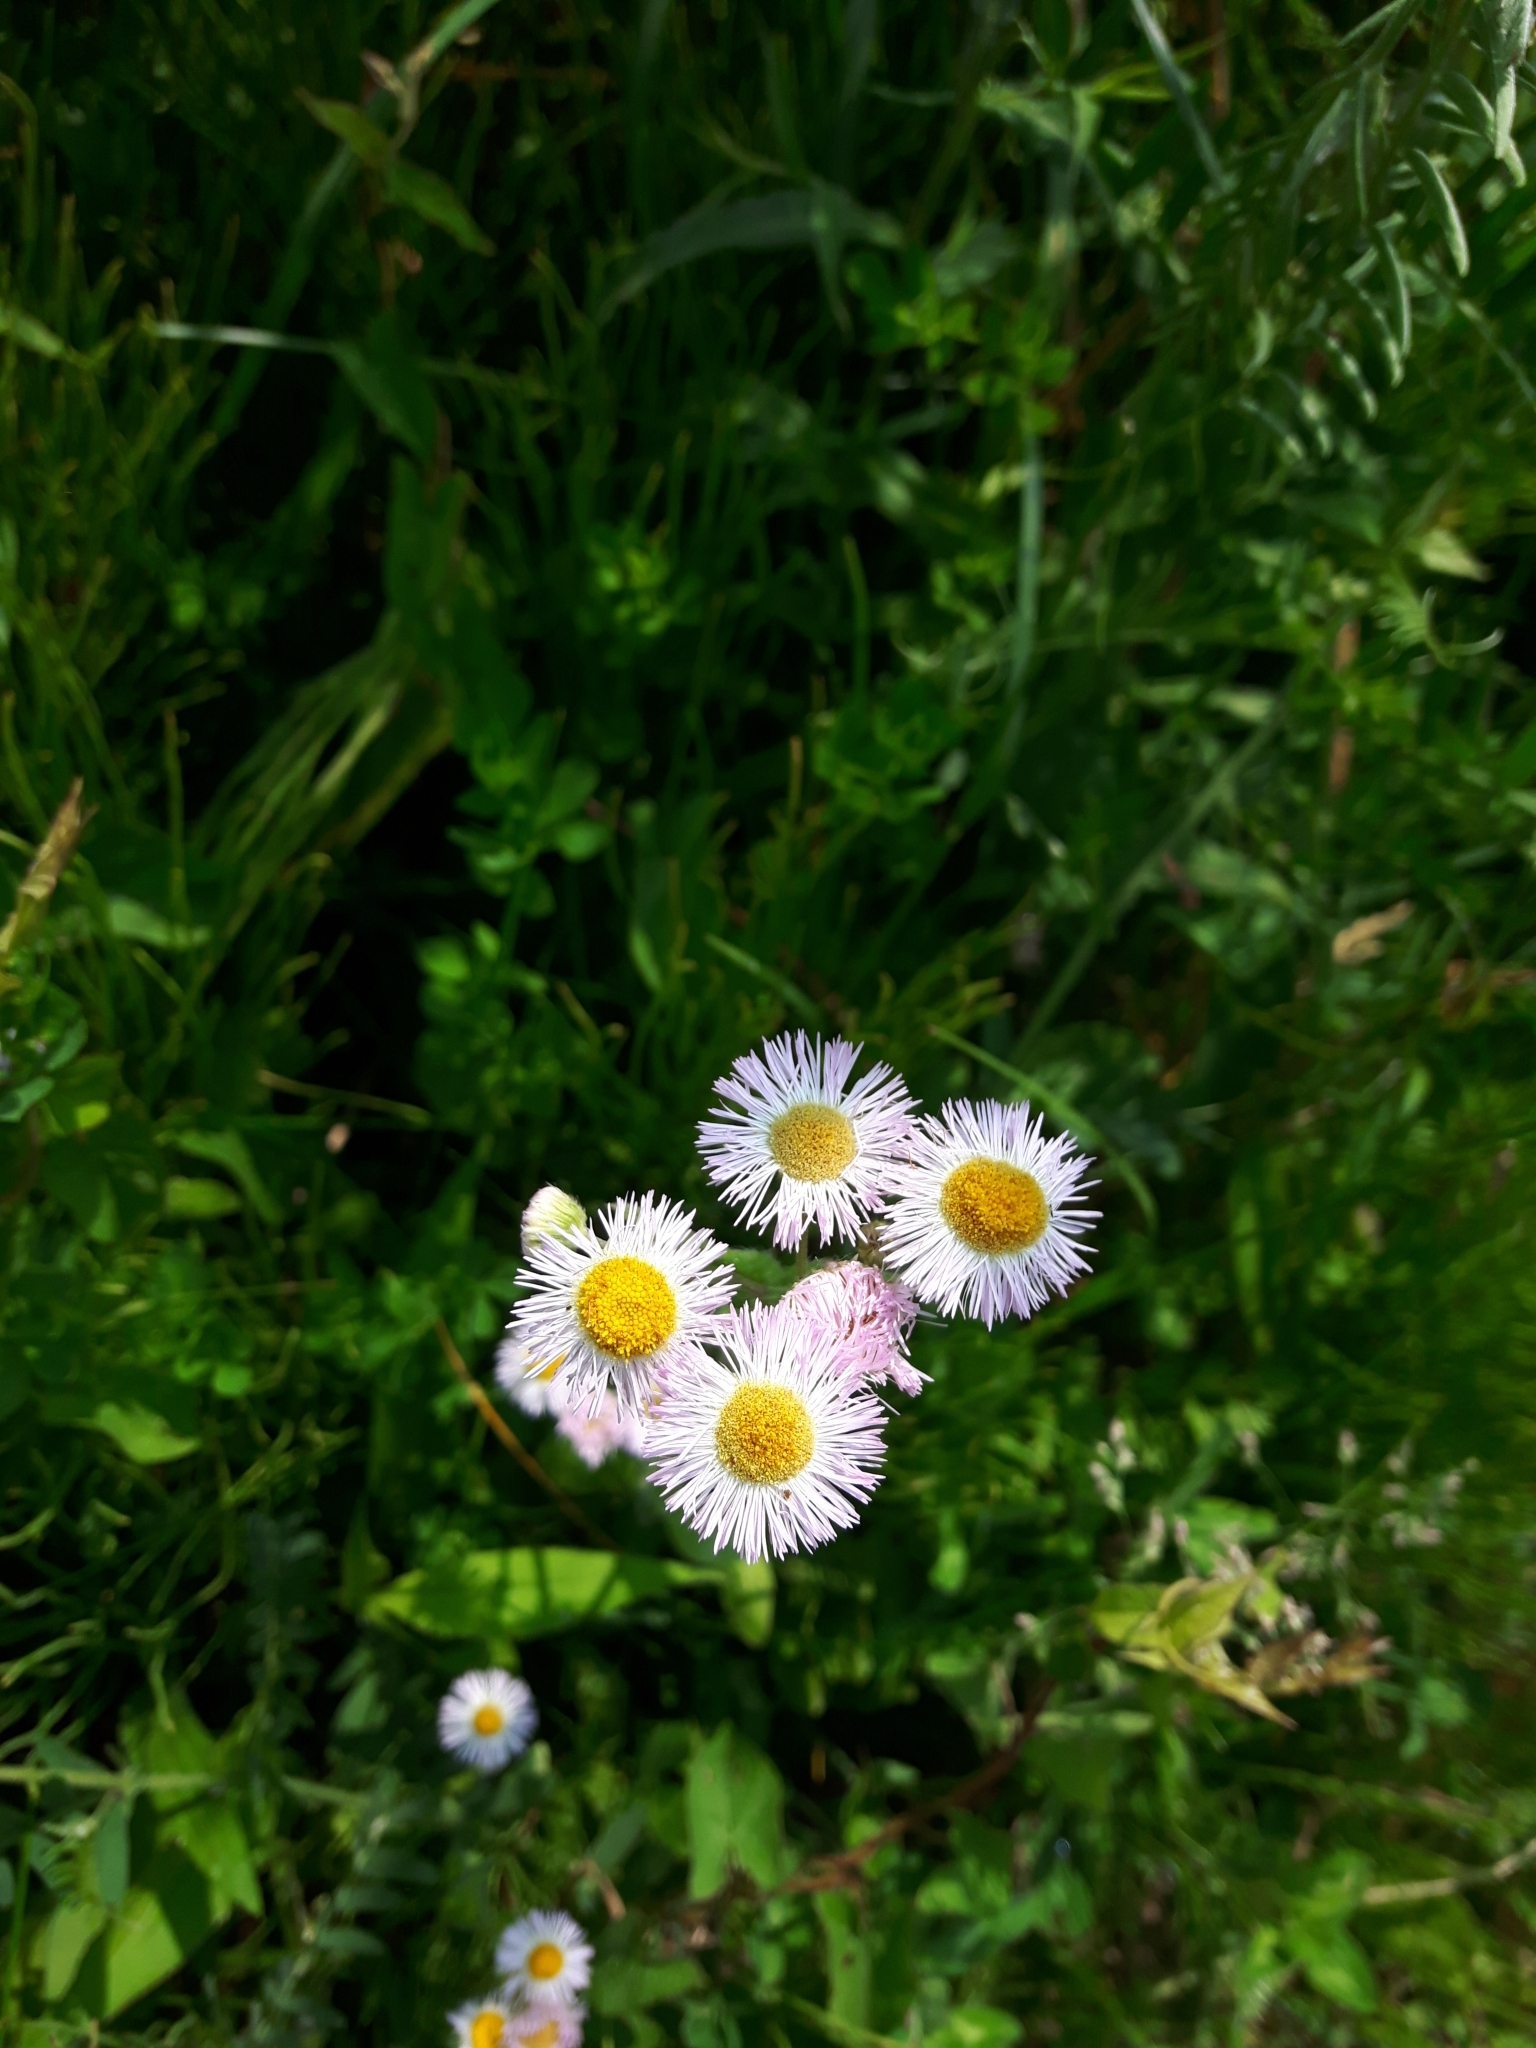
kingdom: Plantae
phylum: Tracheophyta
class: Magnoliopsida
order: Asterales
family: Asteraceae
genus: Erigeron
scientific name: Erigeron philadelphicus
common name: Robin's-plantain
